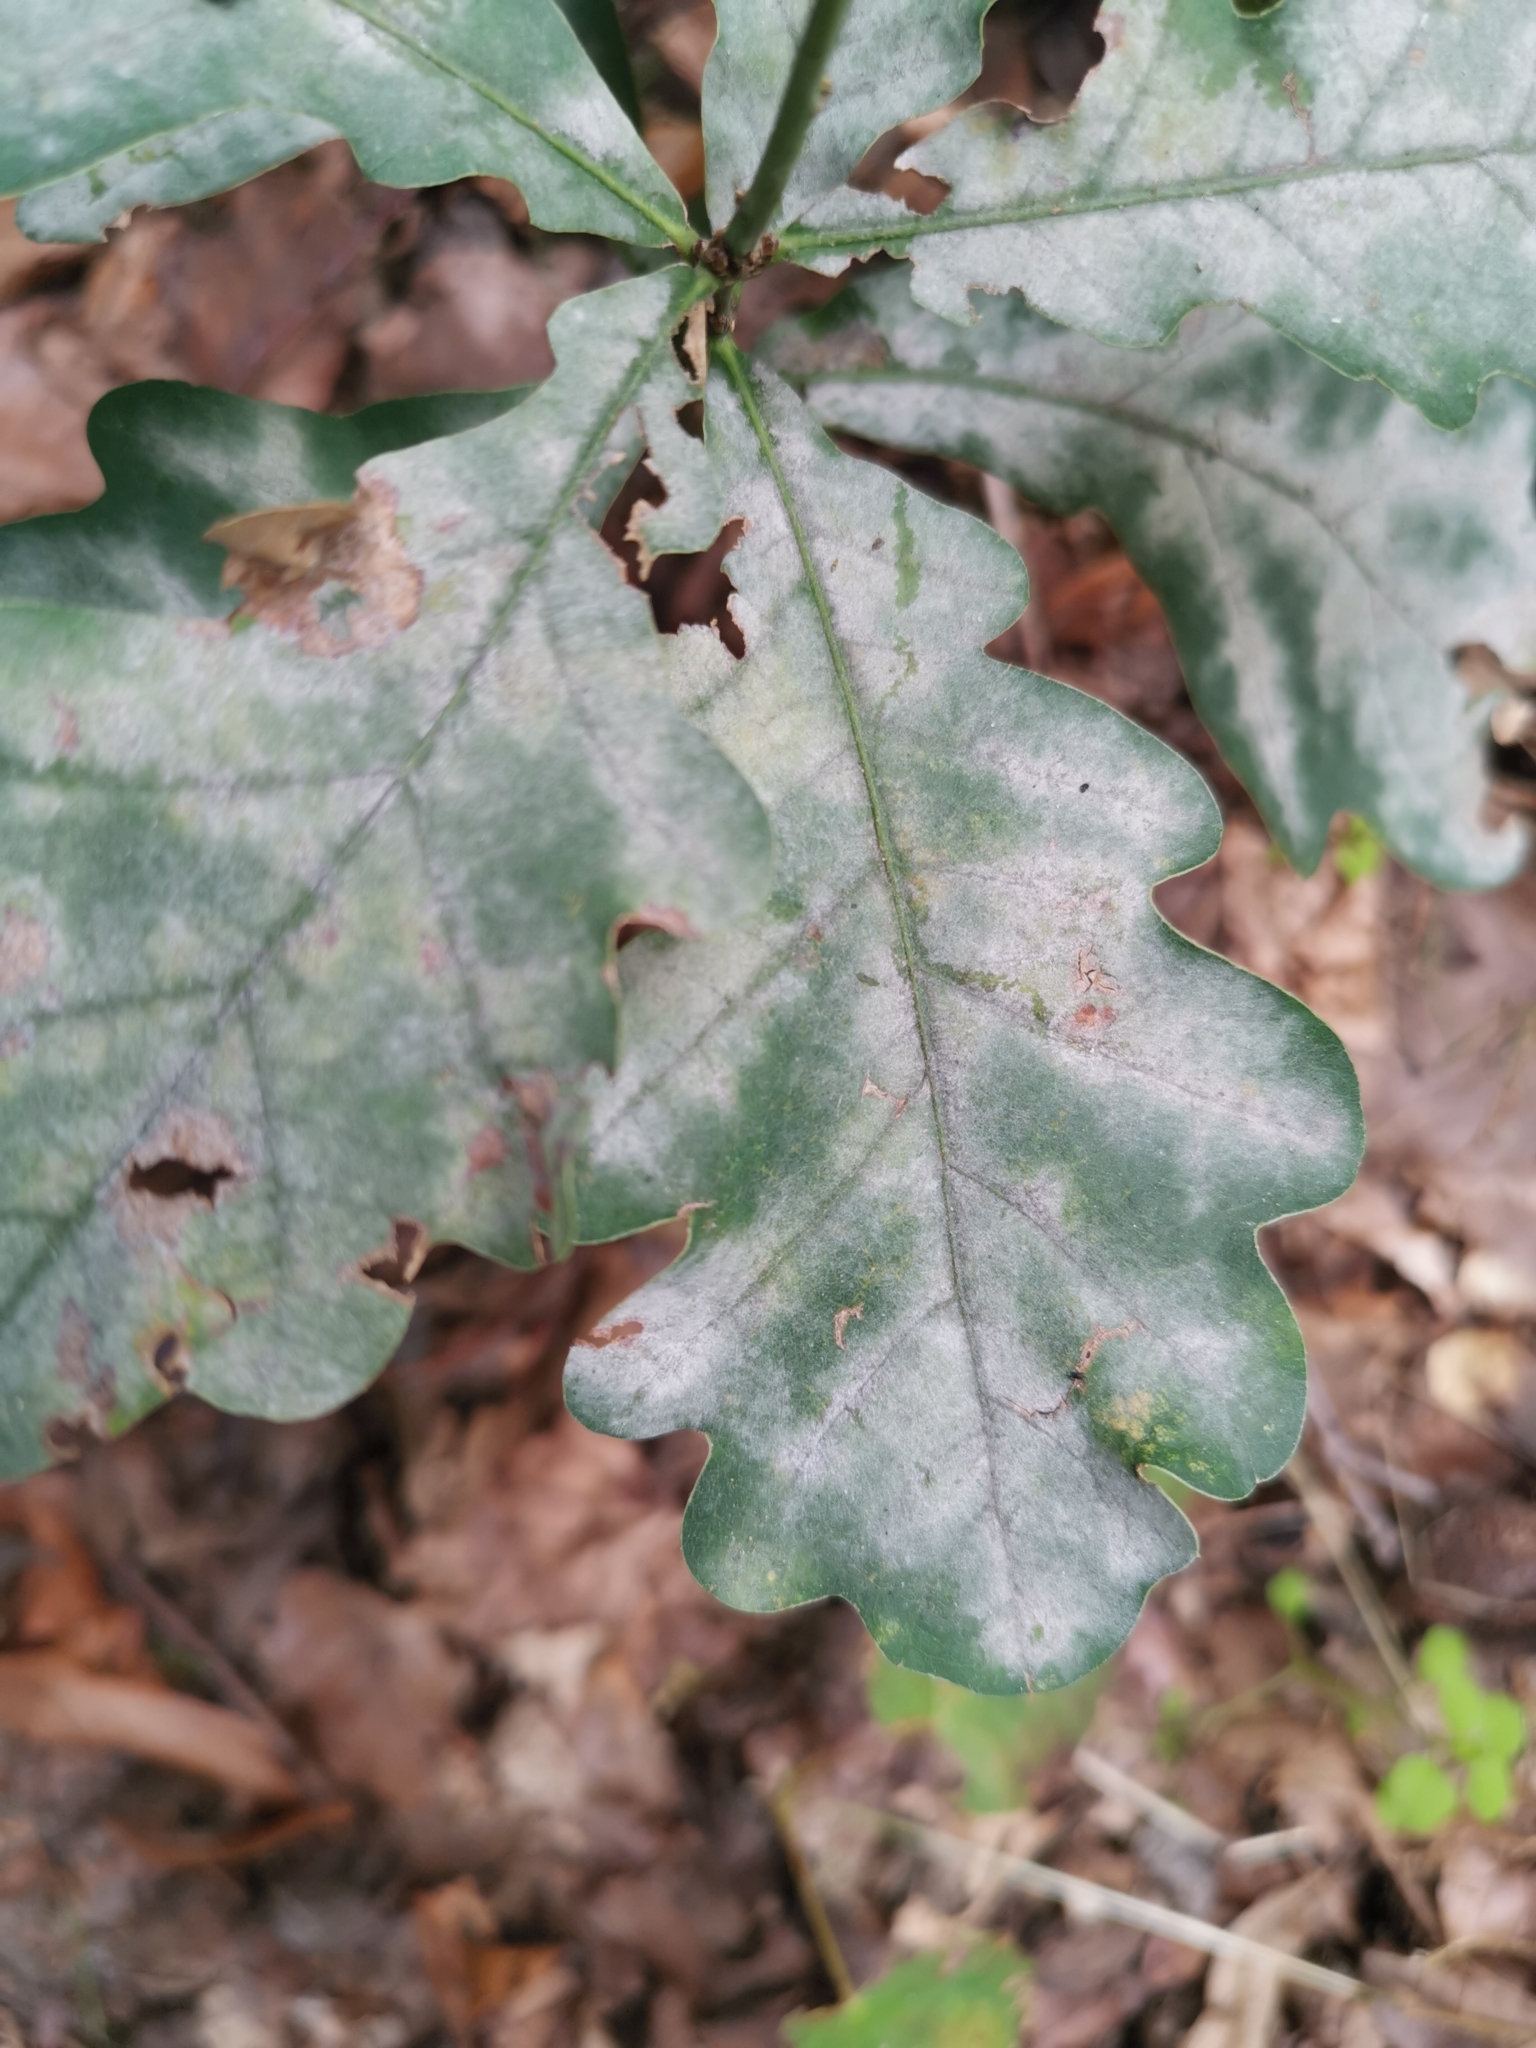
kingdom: Fungi
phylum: Ascomycota
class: Leotiomycetes
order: Helotiales
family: Erysiphaceae
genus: Erysiphe
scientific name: Erysiphe
